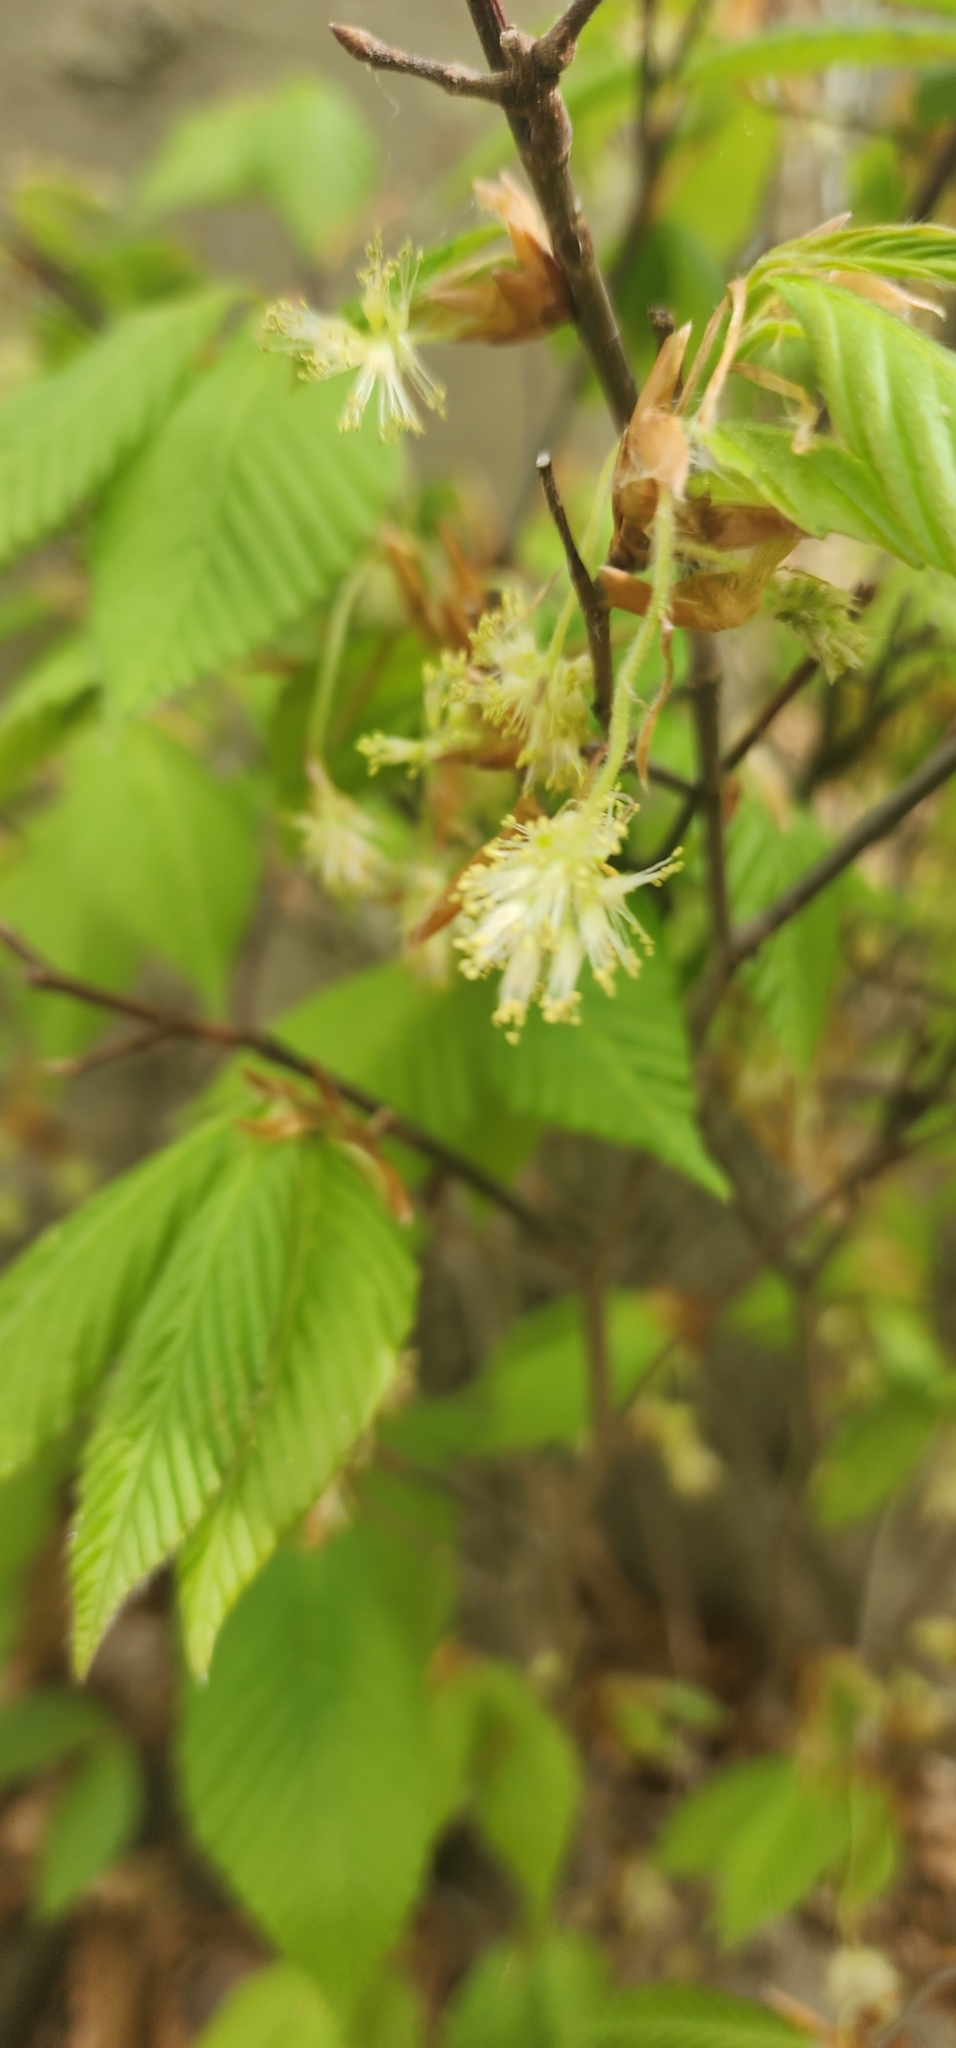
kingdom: Plantae
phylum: Tracheophyta
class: Magnoliopsida
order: Fagales
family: Fagaceae
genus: Fagus
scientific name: Fagus grandifolia
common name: American beech
